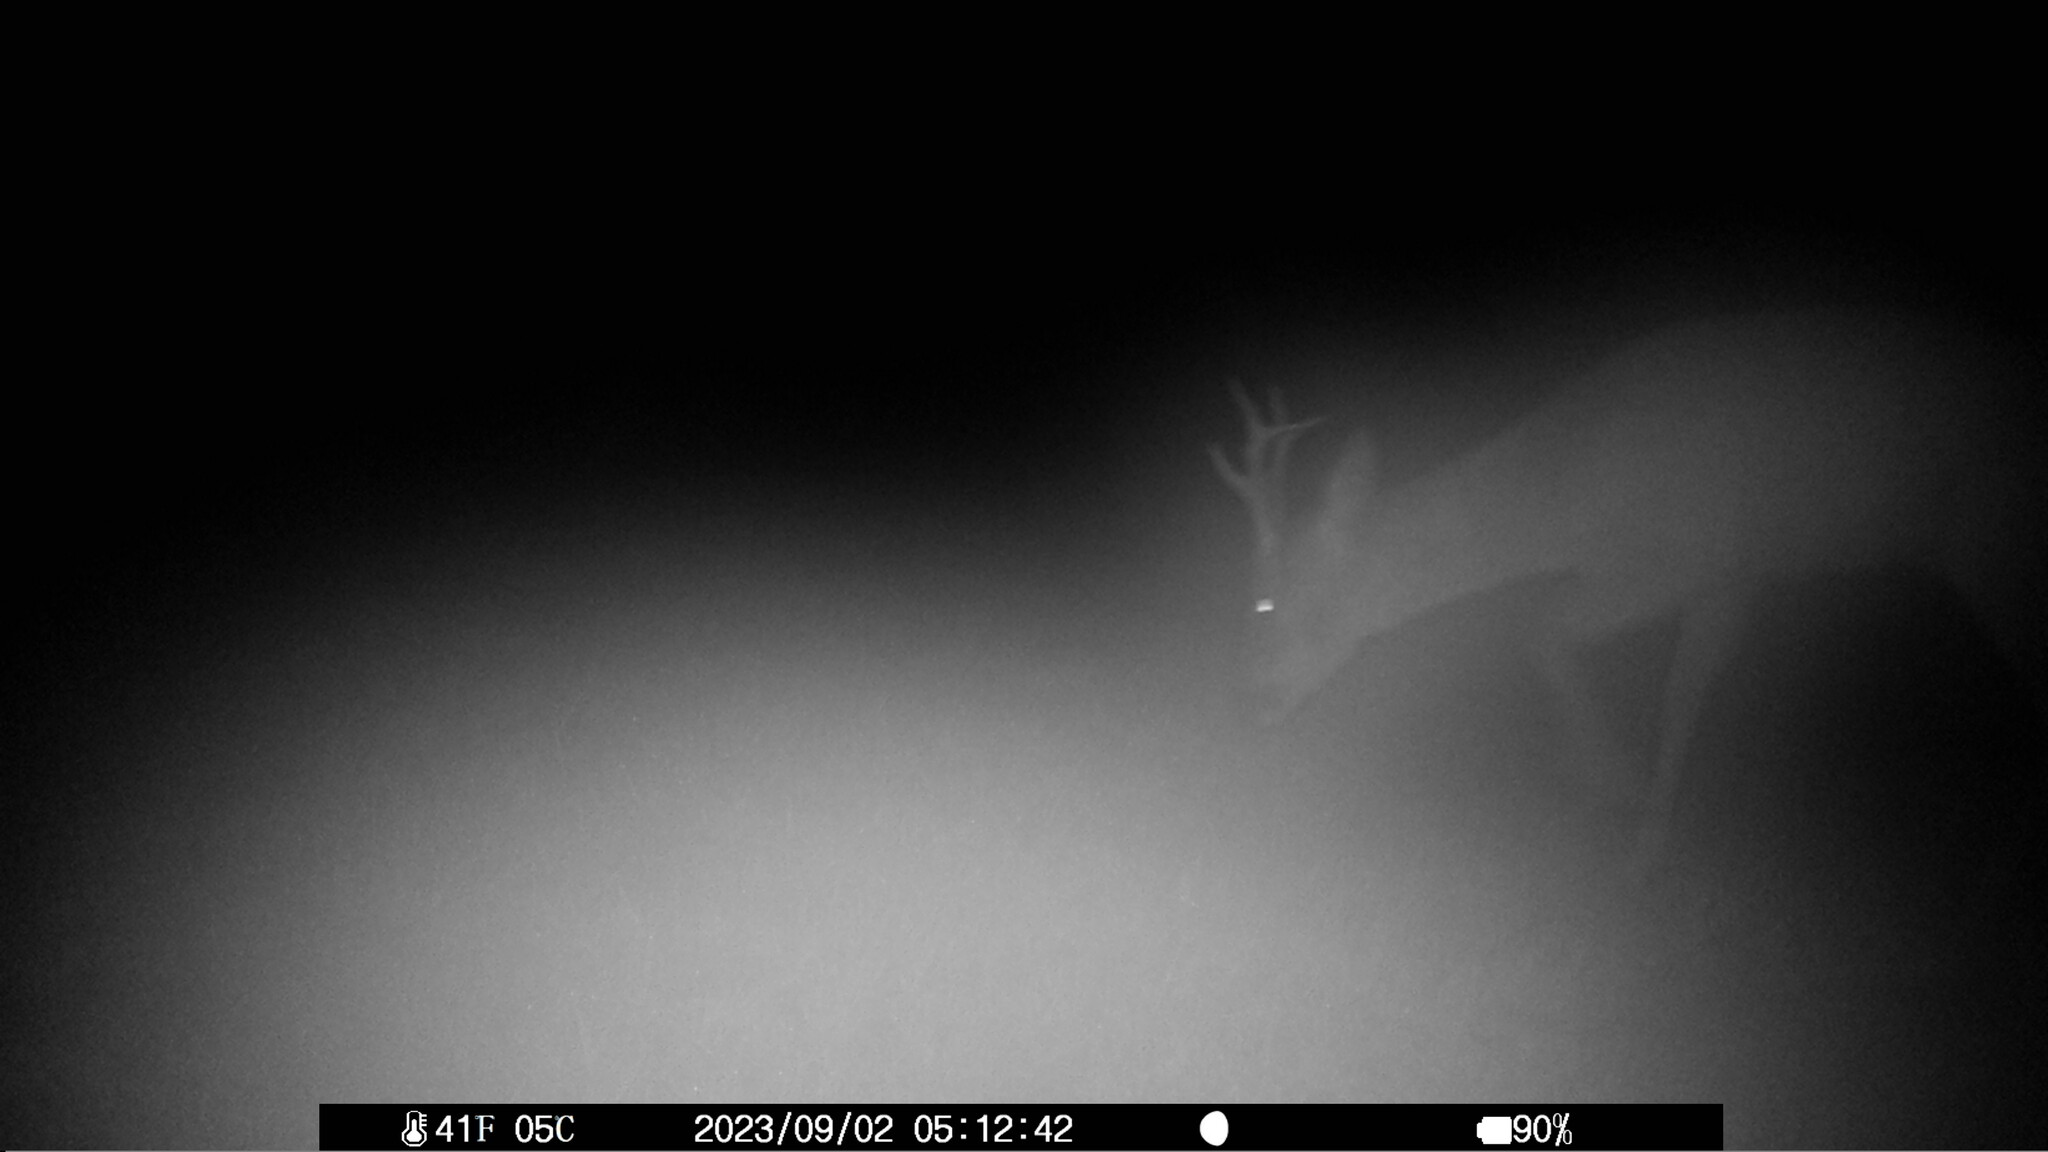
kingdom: Animalia
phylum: Chordata
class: Mammalia
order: Artiodactyla
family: Cervidae
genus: Capreolus
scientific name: Capreolus capreolus
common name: Western roe deer
